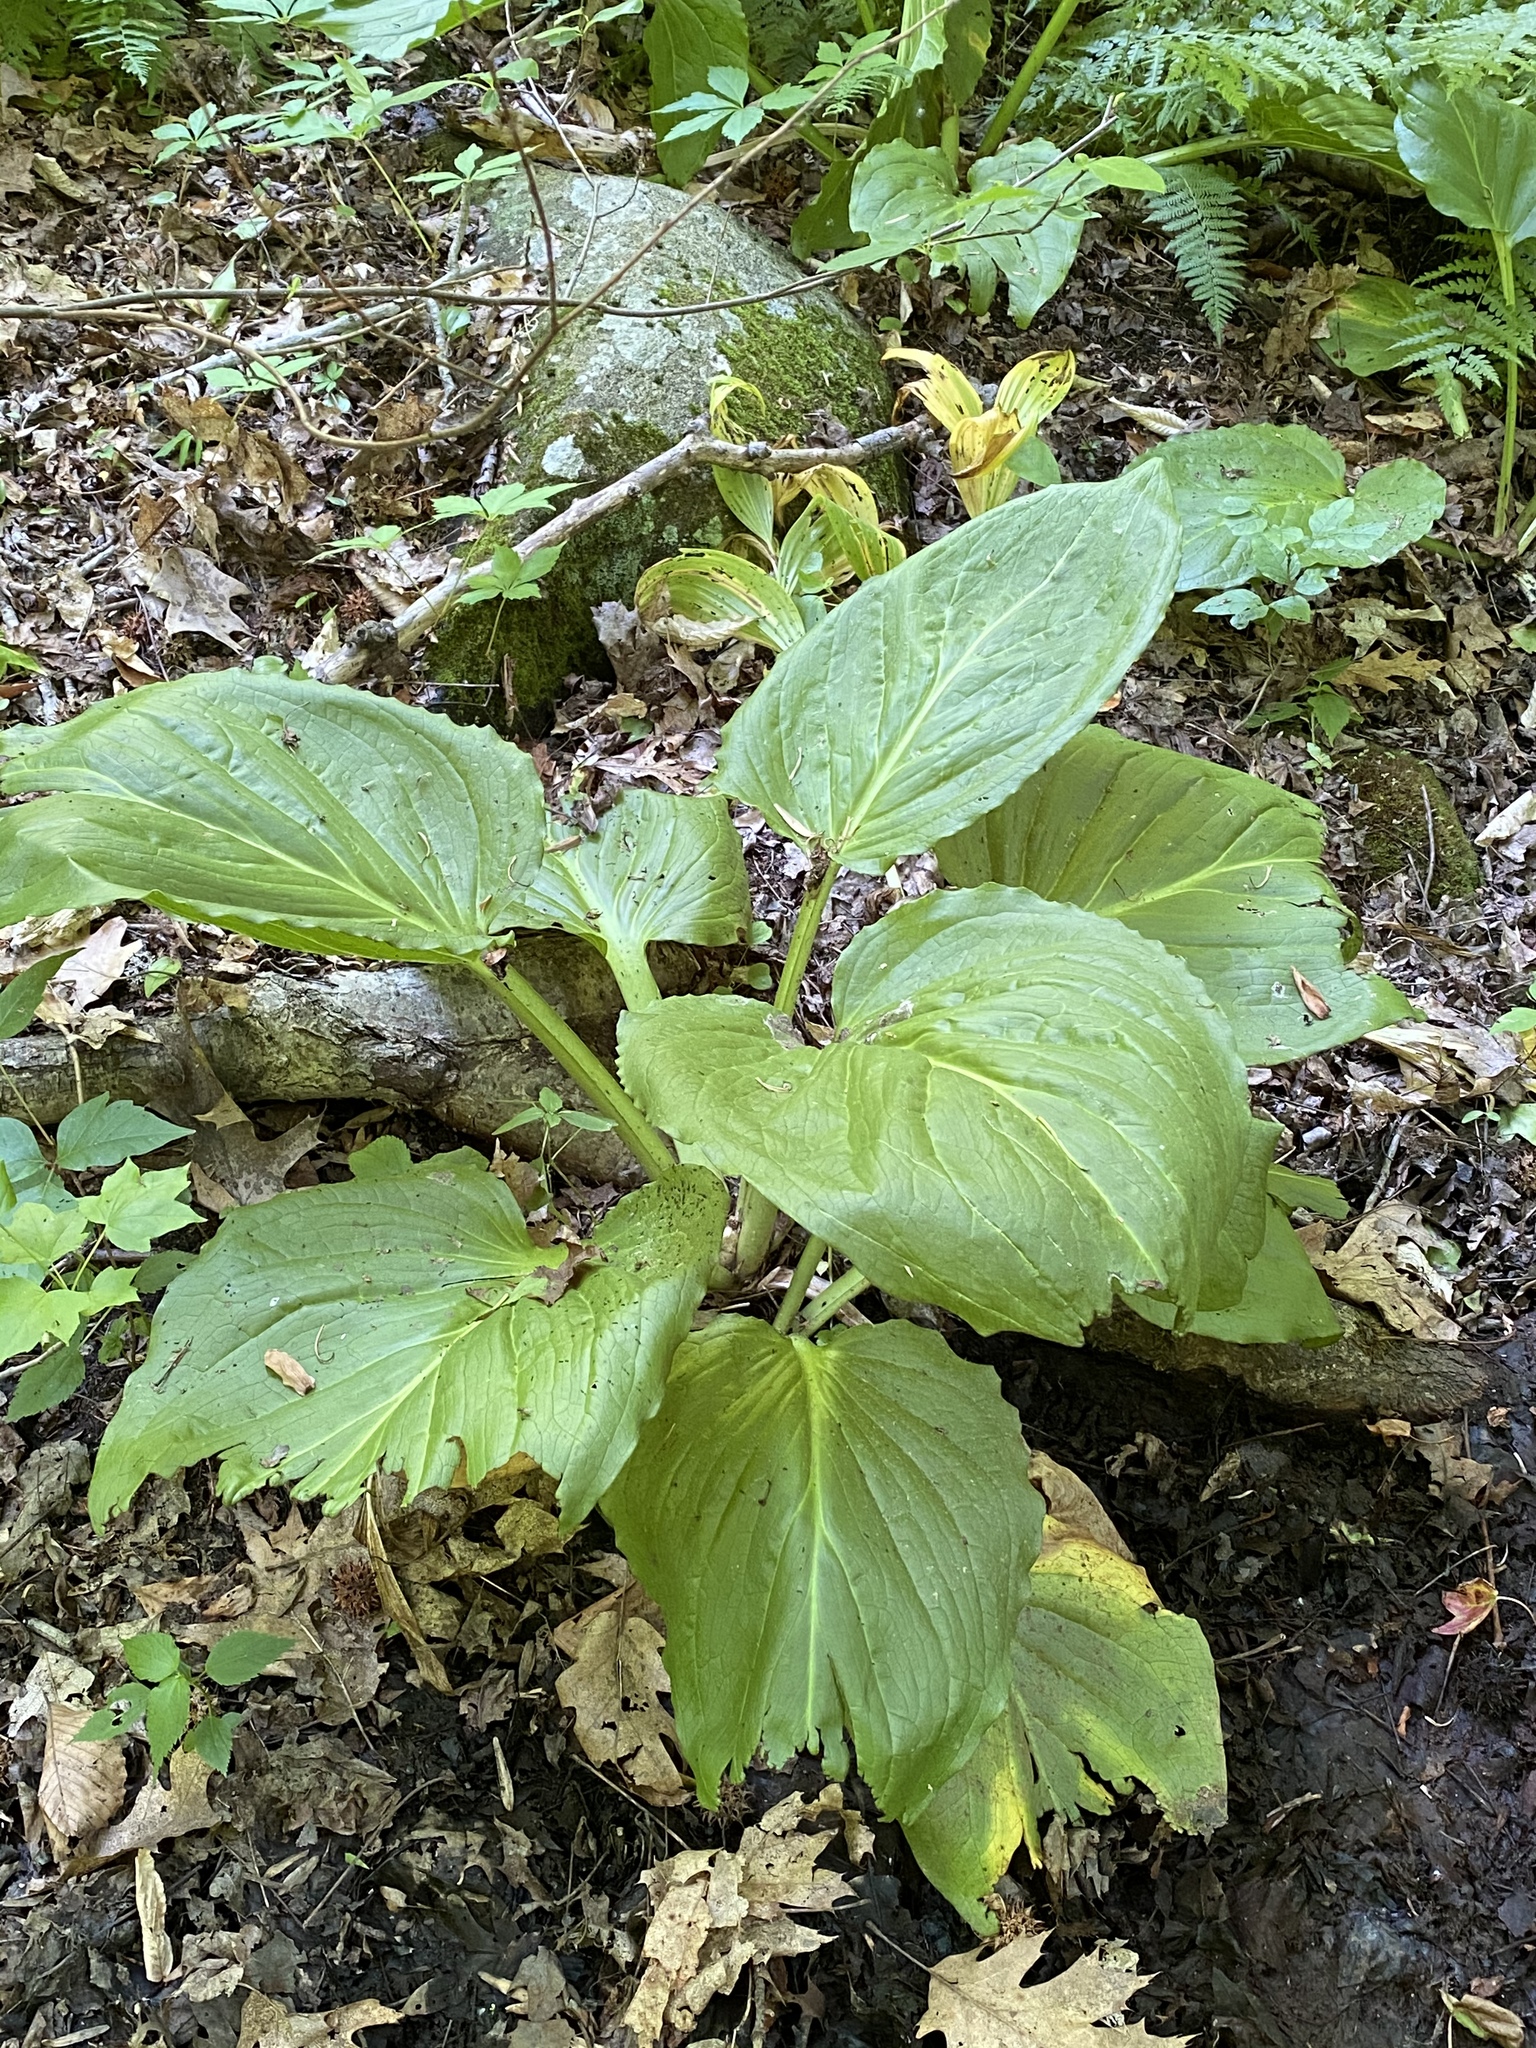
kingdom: Plantae
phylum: Tracheophyta
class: Liliopsida
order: Alismatales
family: Araceae
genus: Symplocarpus
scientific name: Symplocarpus foetidus
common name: Eastern skunk cabbage
